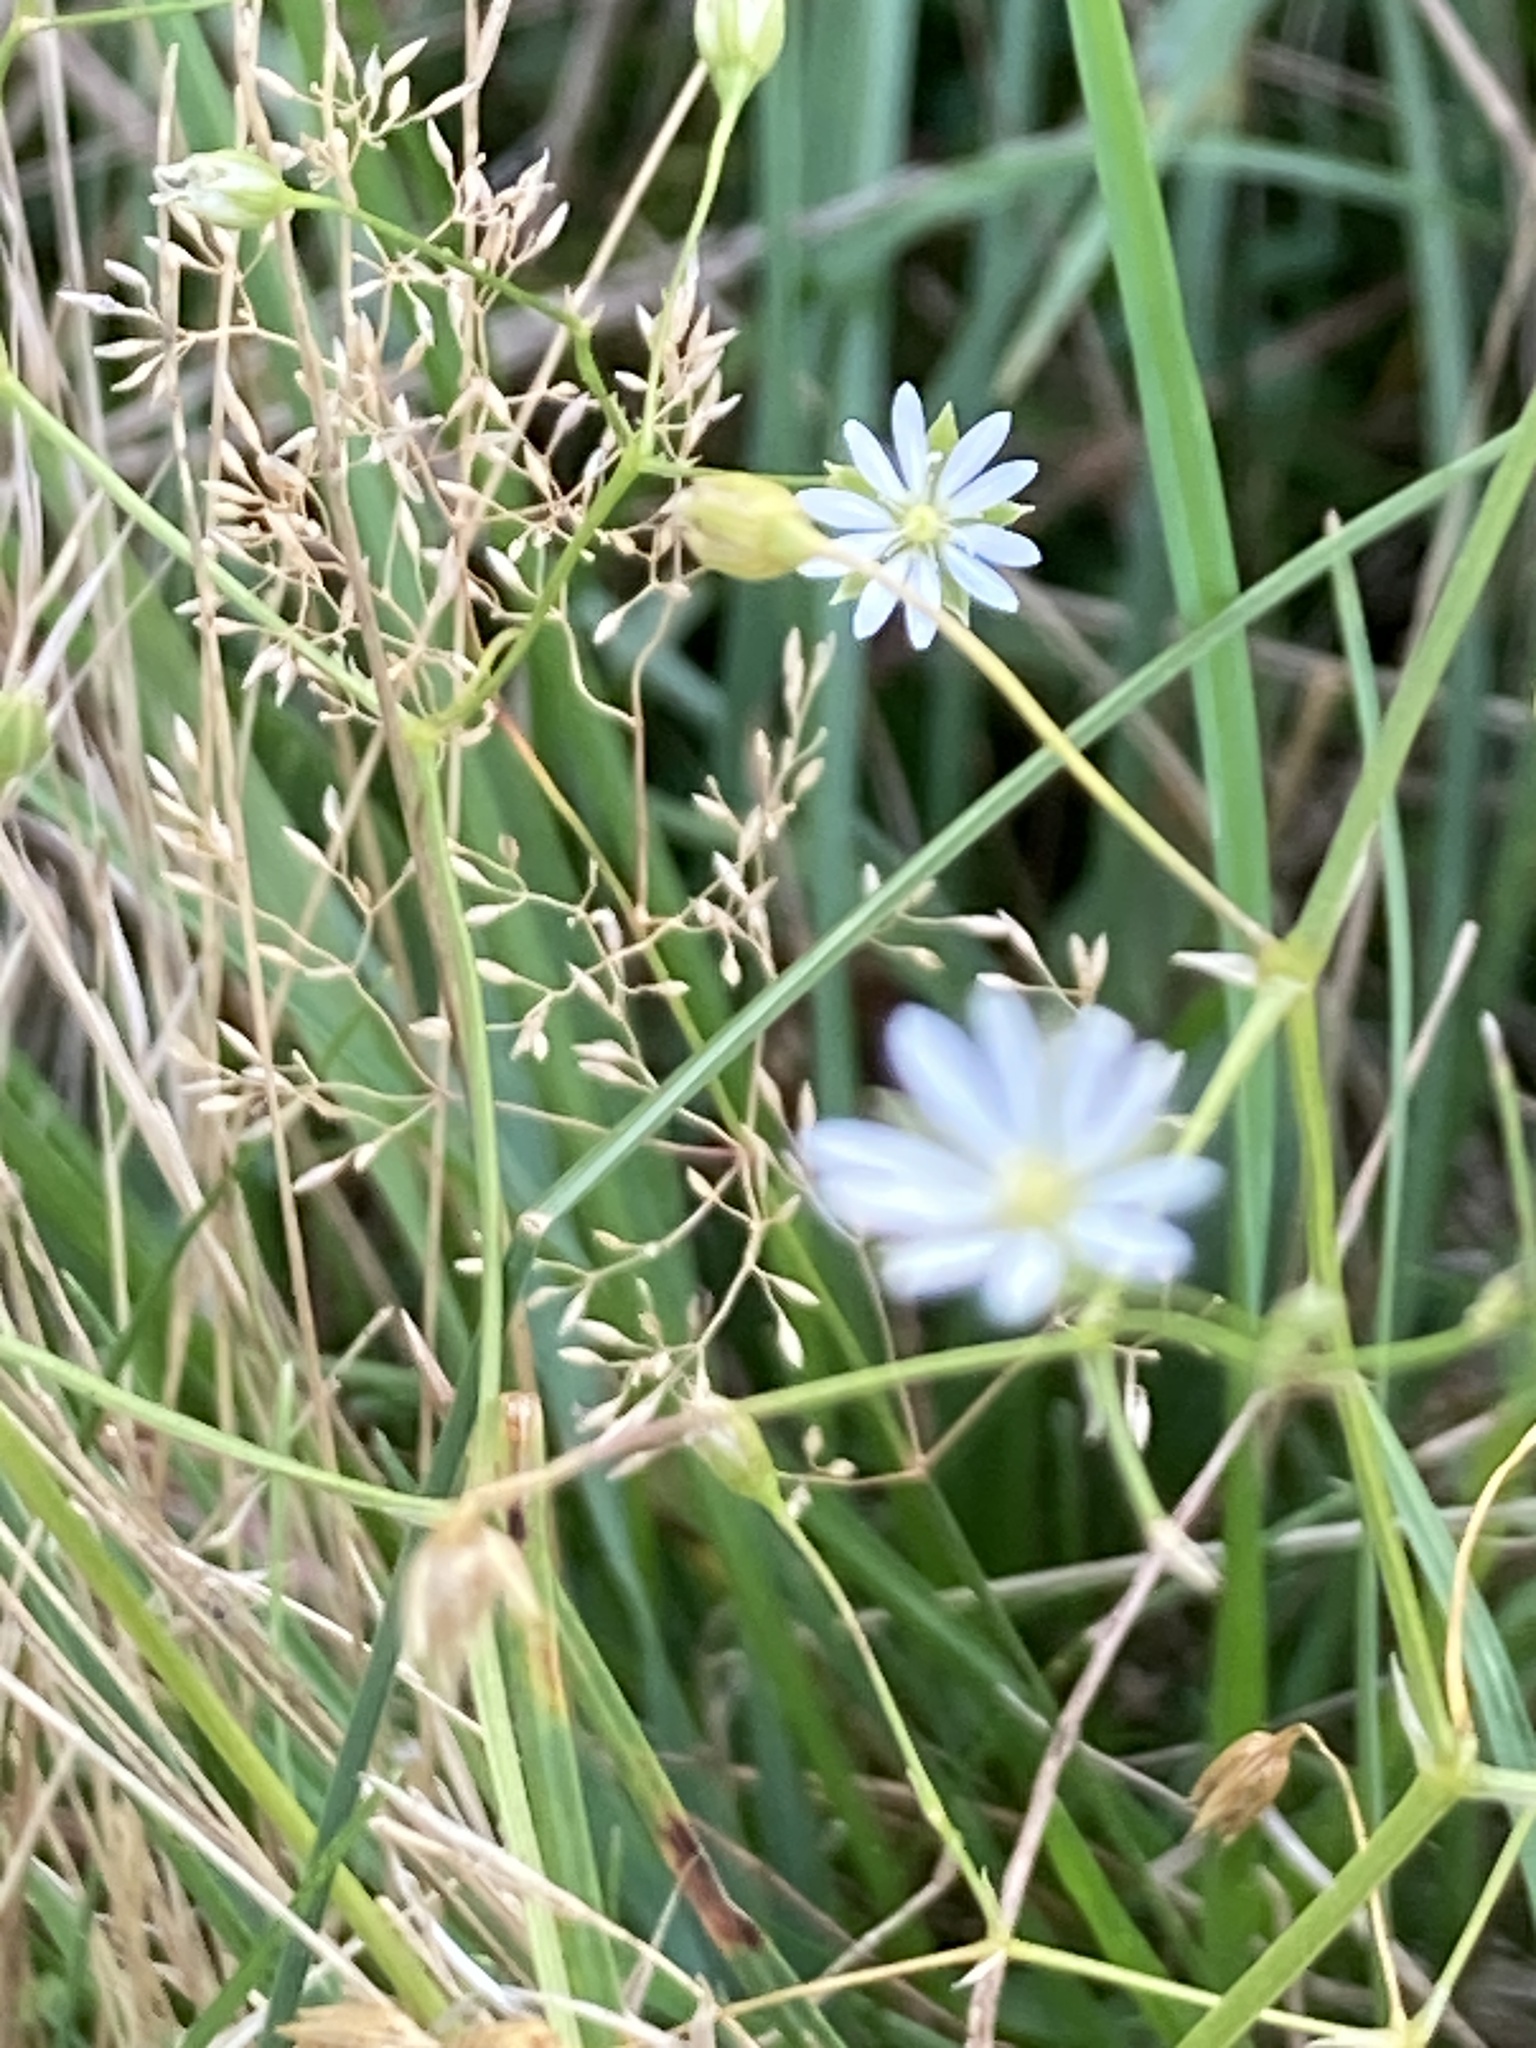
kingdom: Plantae
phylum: Tracheophyta
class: Magnoliopsida
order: Caryophyllales
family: Caryophyllaceae
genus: Stellaria
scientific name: Stellaria graminea
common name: Grass-like starwort
